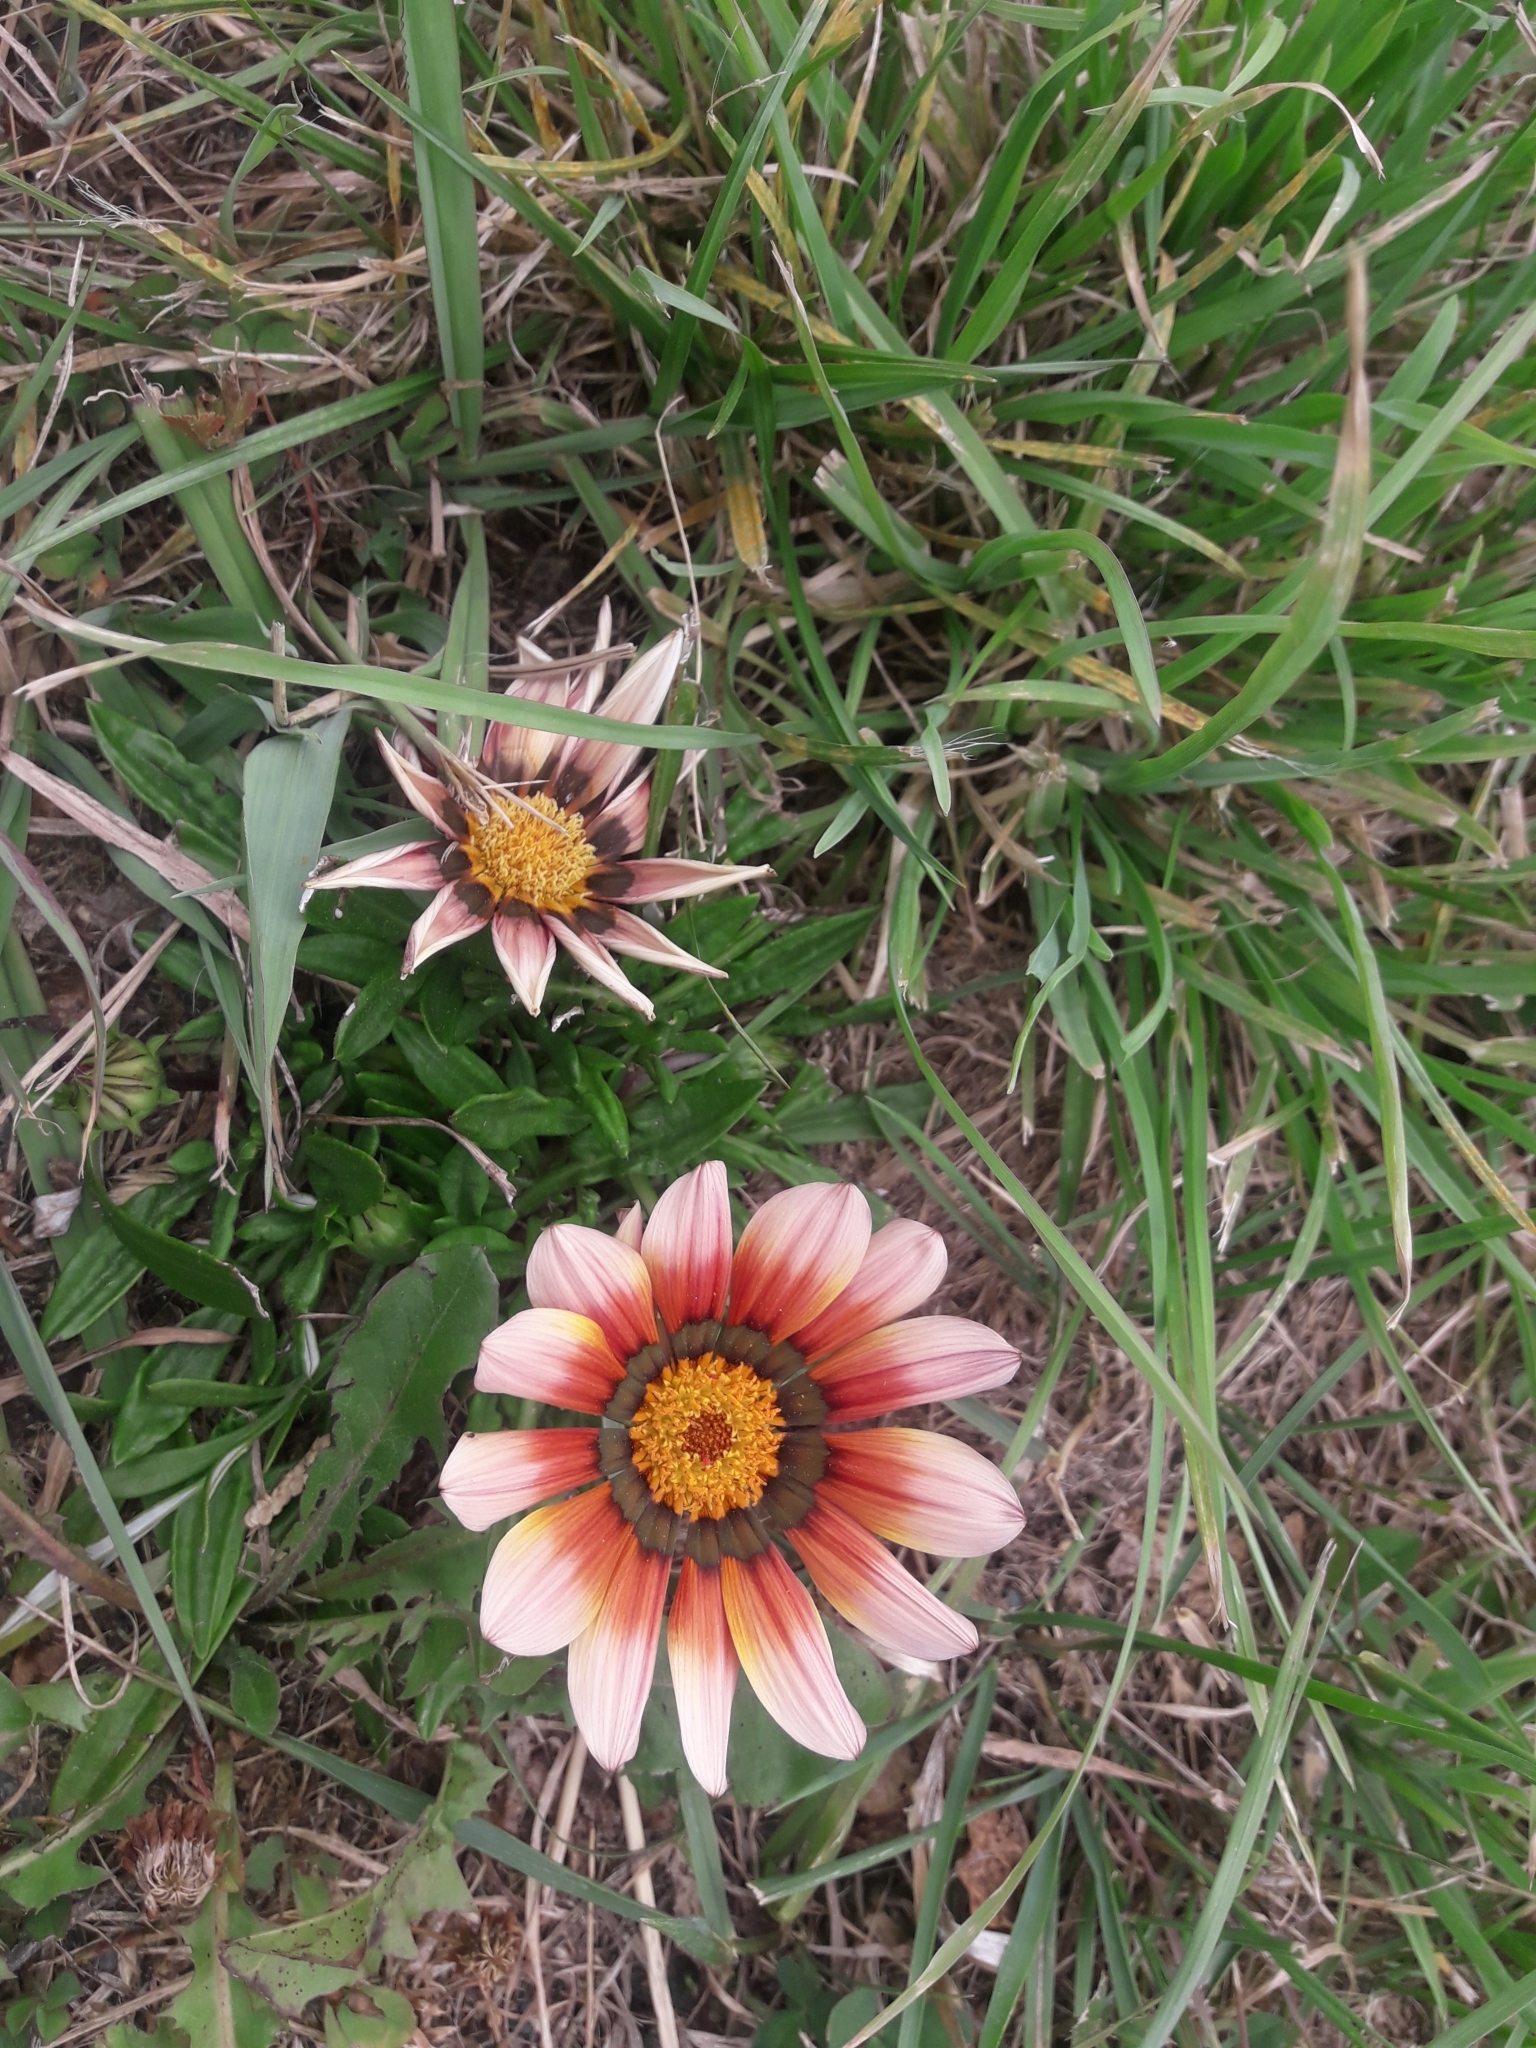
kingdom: Plantae
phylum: Tracheophyta
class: Magnoliopsida
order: Asterales
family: Asteraceae
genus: Gazania
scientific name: Gazania splendens
